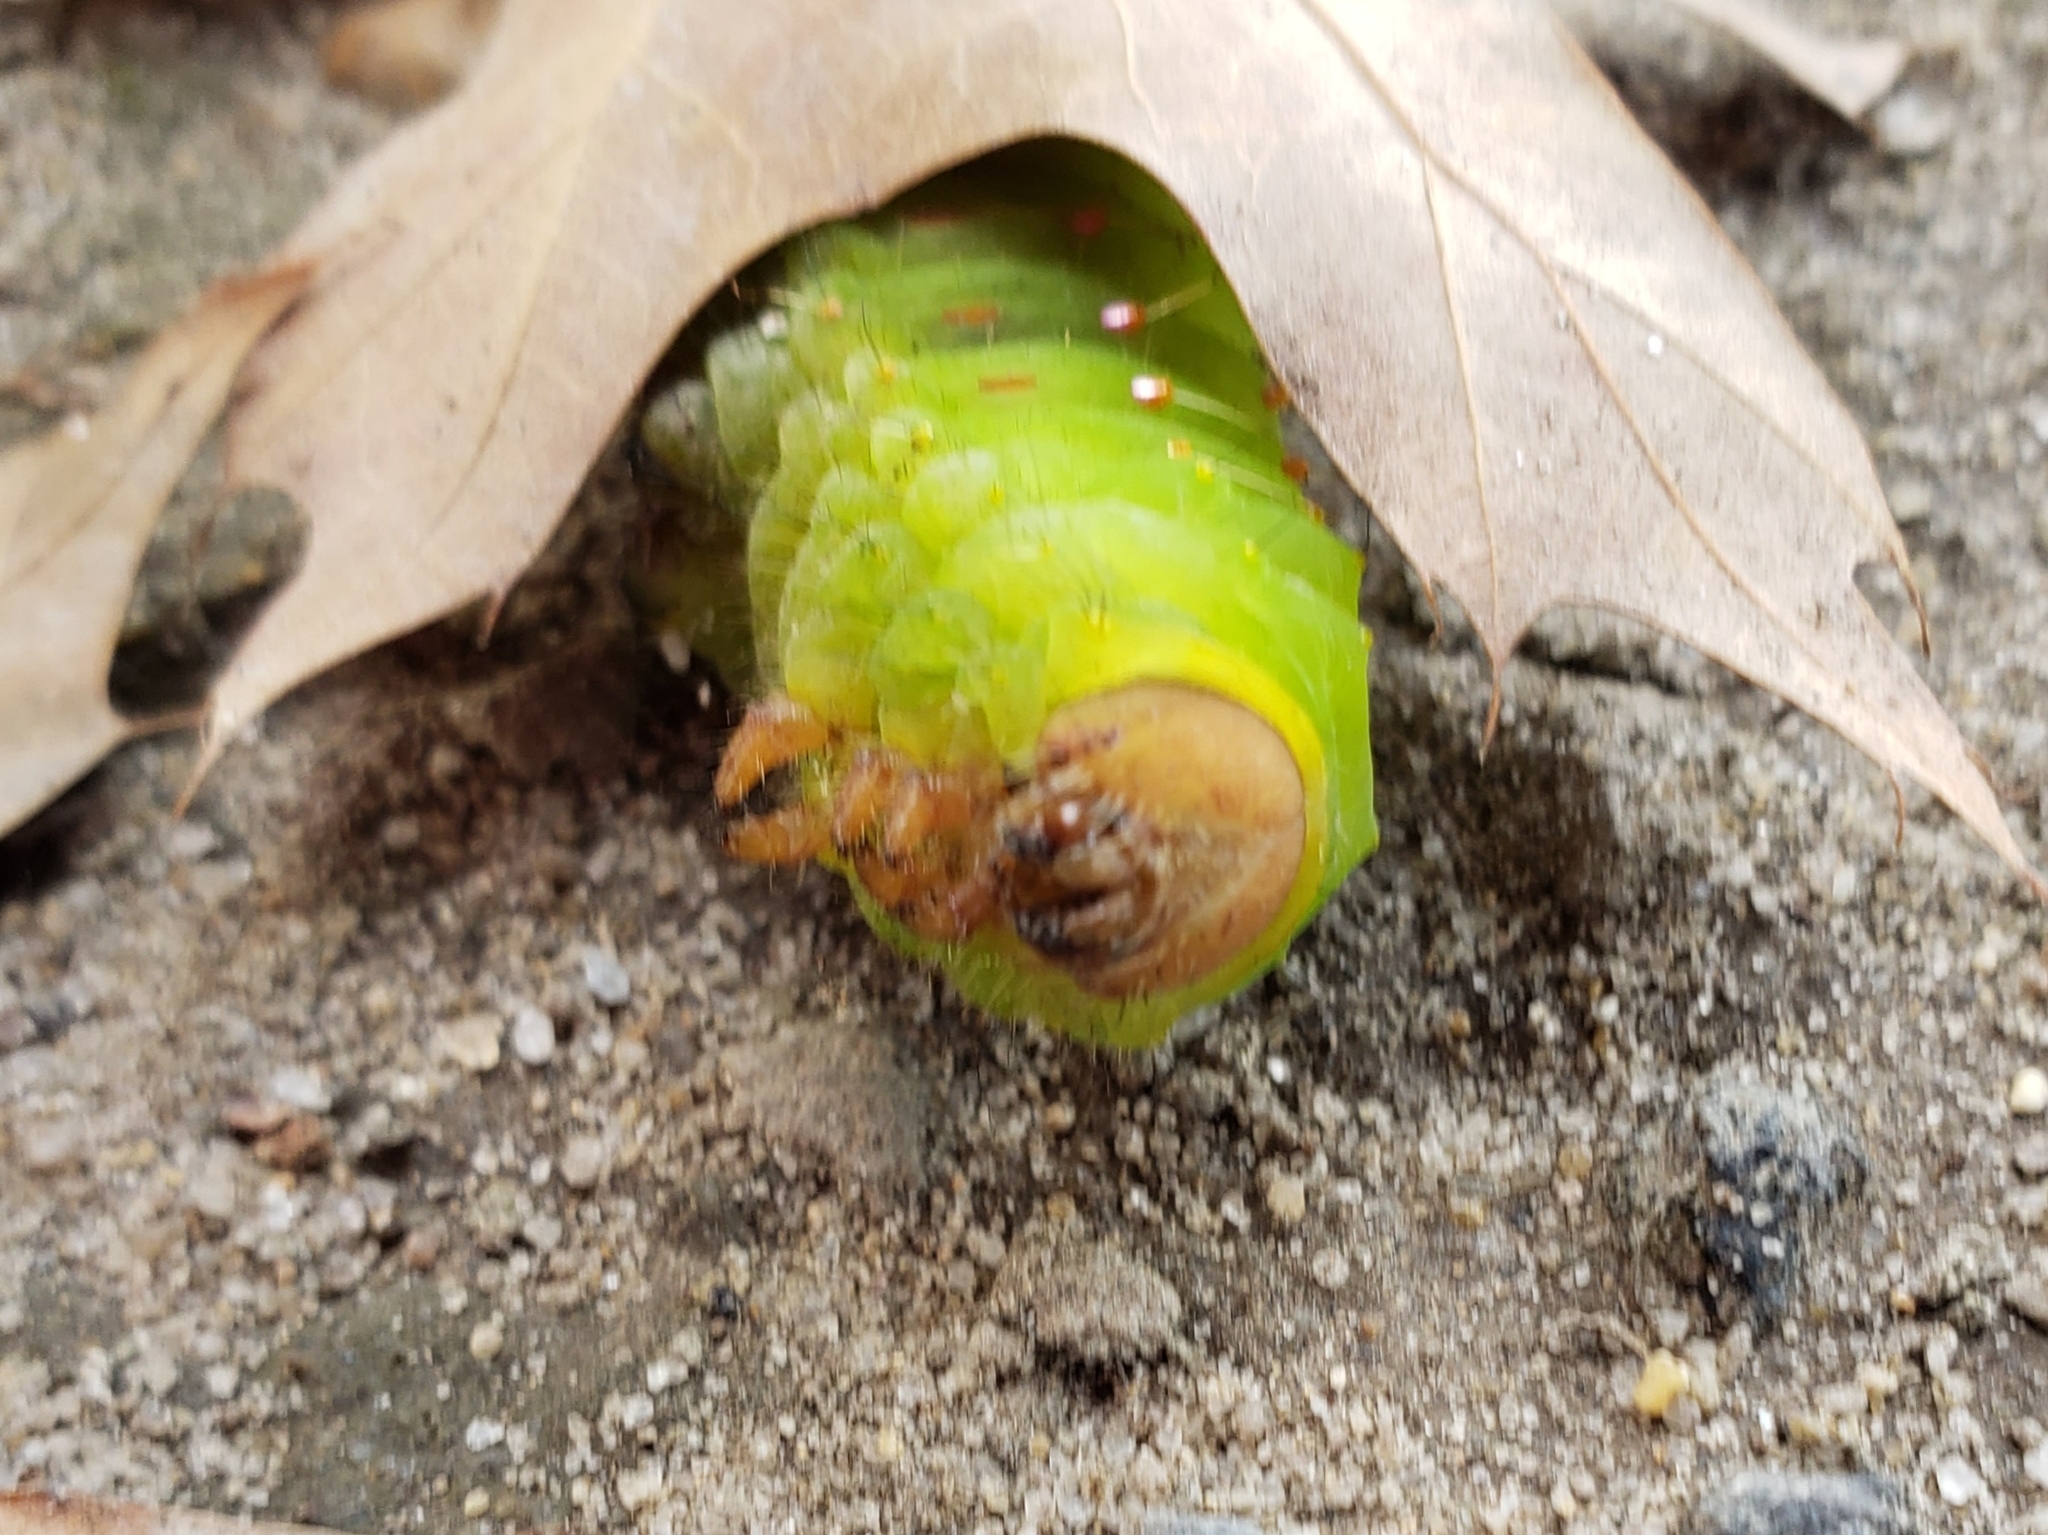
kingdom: Animalia
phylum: Arthropoda
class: Insecta
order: Lepidoptera
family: Saturniidae
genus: Antheraea
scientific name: Antheraea polyphemus
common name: Polyphemus moth
